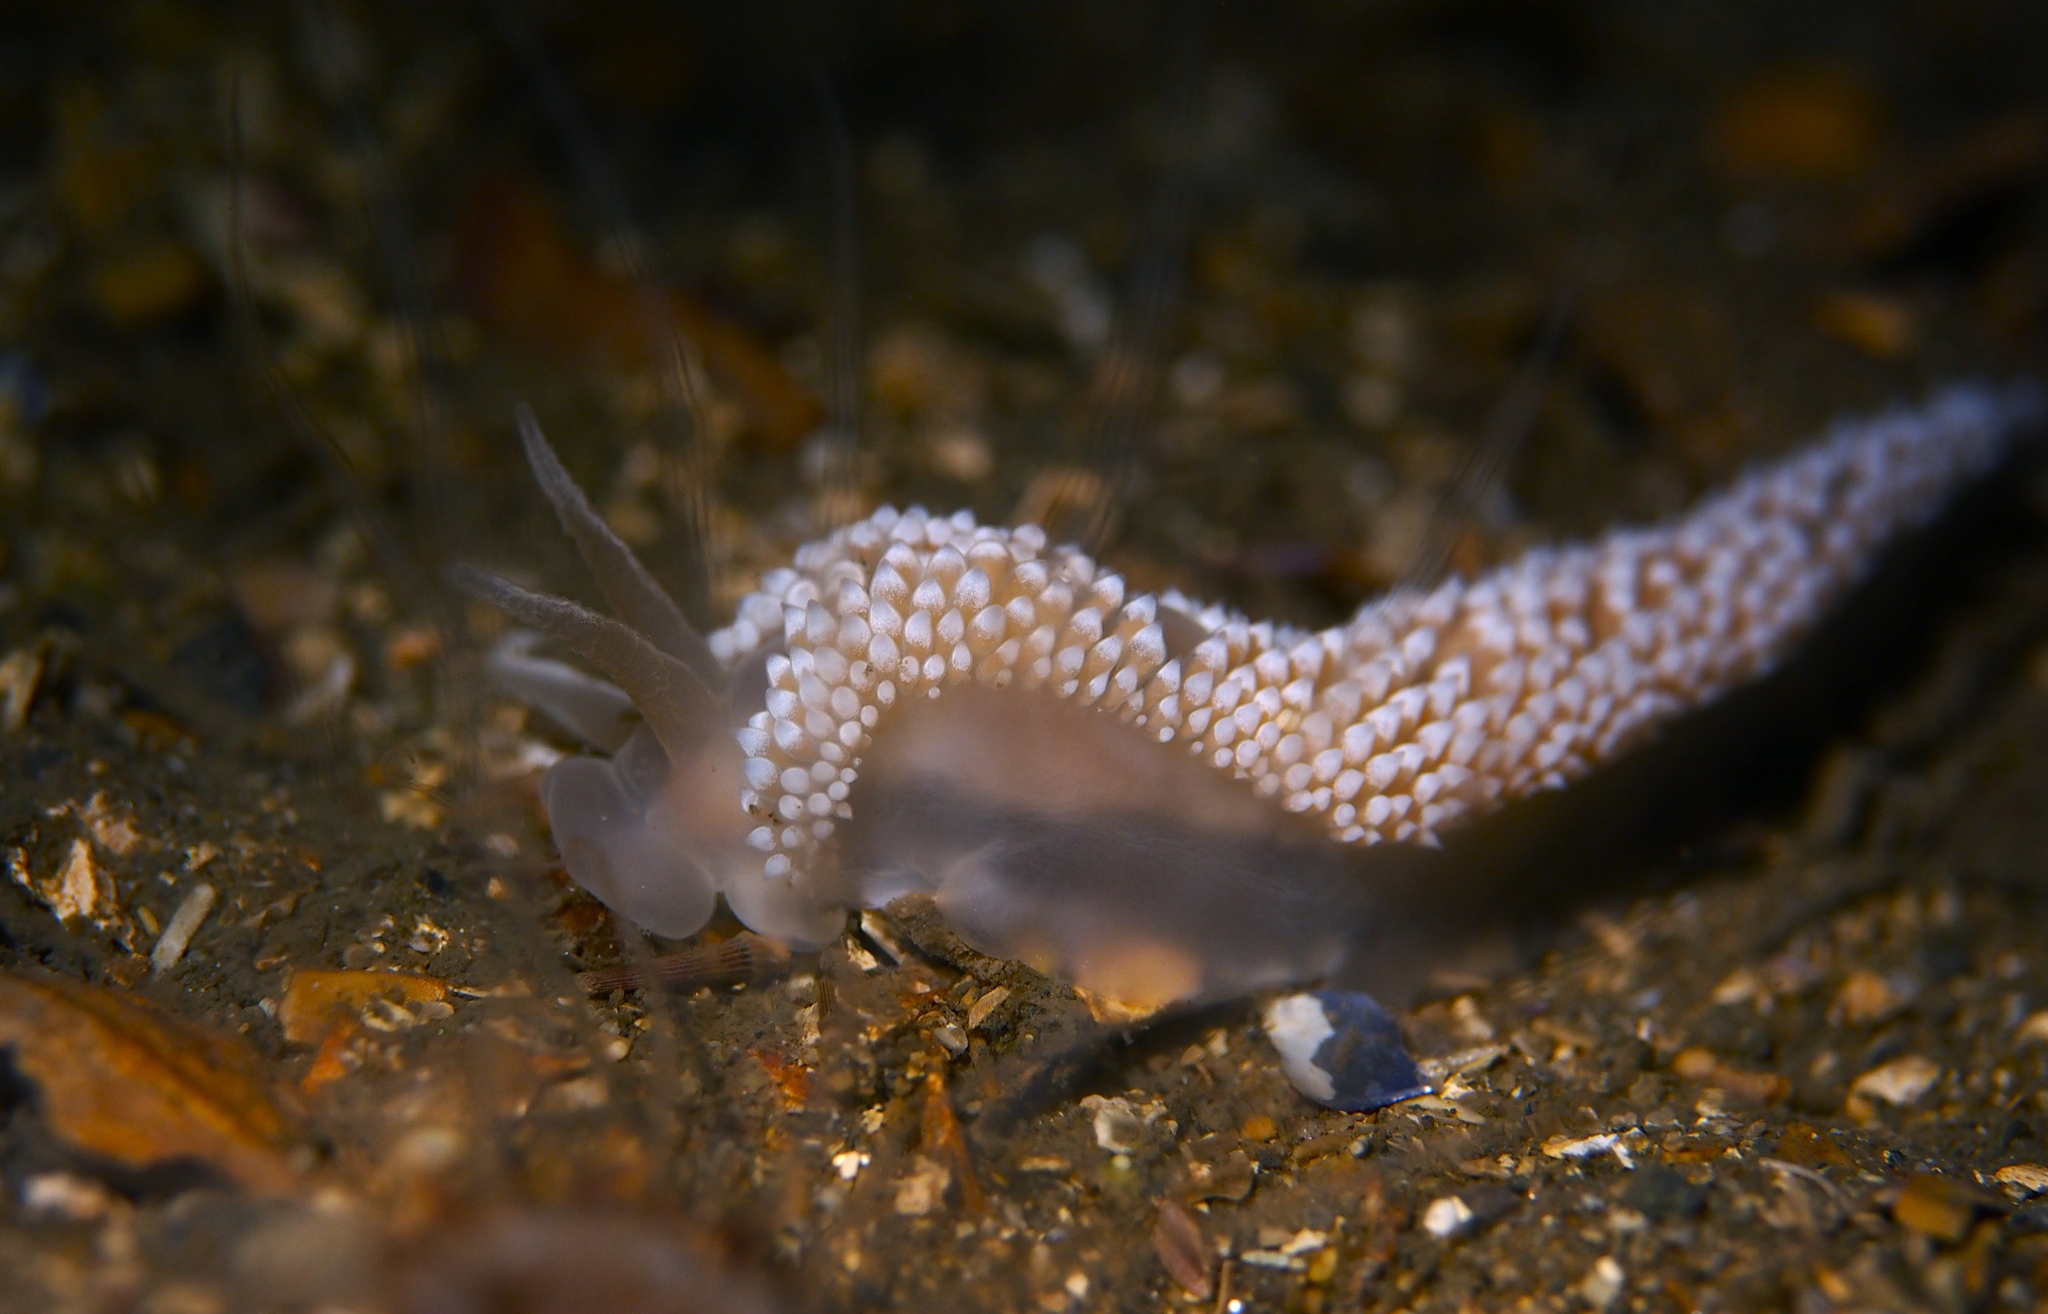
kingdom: Animalia
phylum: Mollusca
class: Gastropoda
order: Nudibranchia
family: Coryphellidae
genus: Coryphella
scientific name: Coryphella verrucosa
